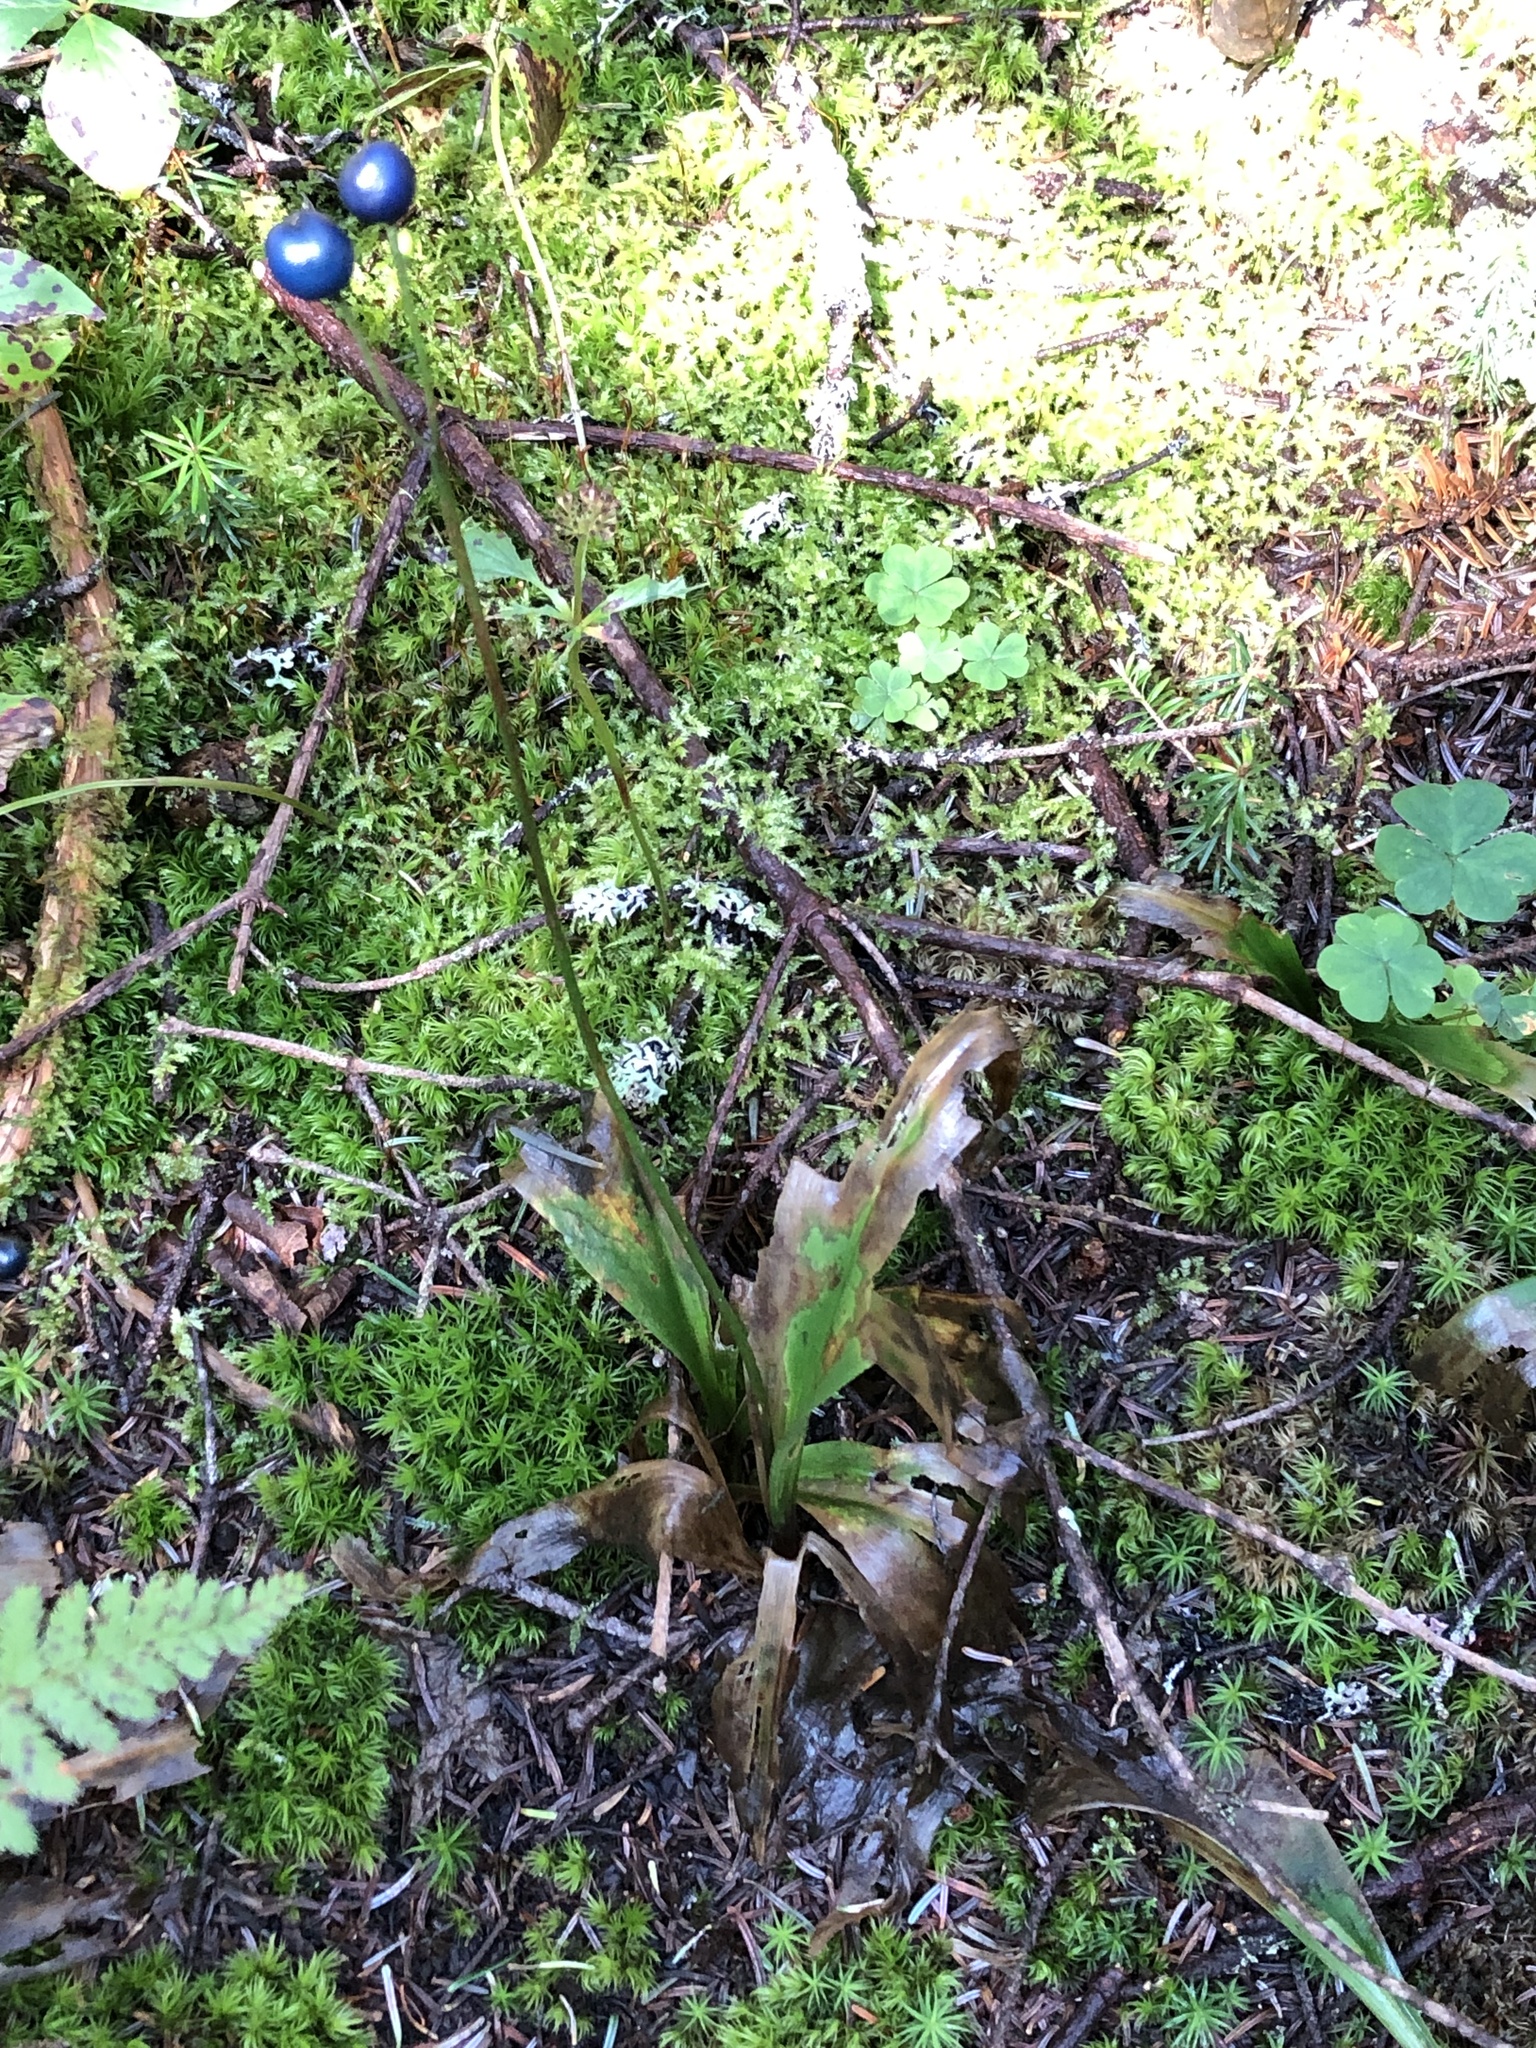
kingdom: Plantae
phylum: Tracheophyta
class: Liliopsida
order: Liliales
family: Liliaceae
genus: Clintonia
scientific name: Clintonia borealis
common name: Yellow clintonia
